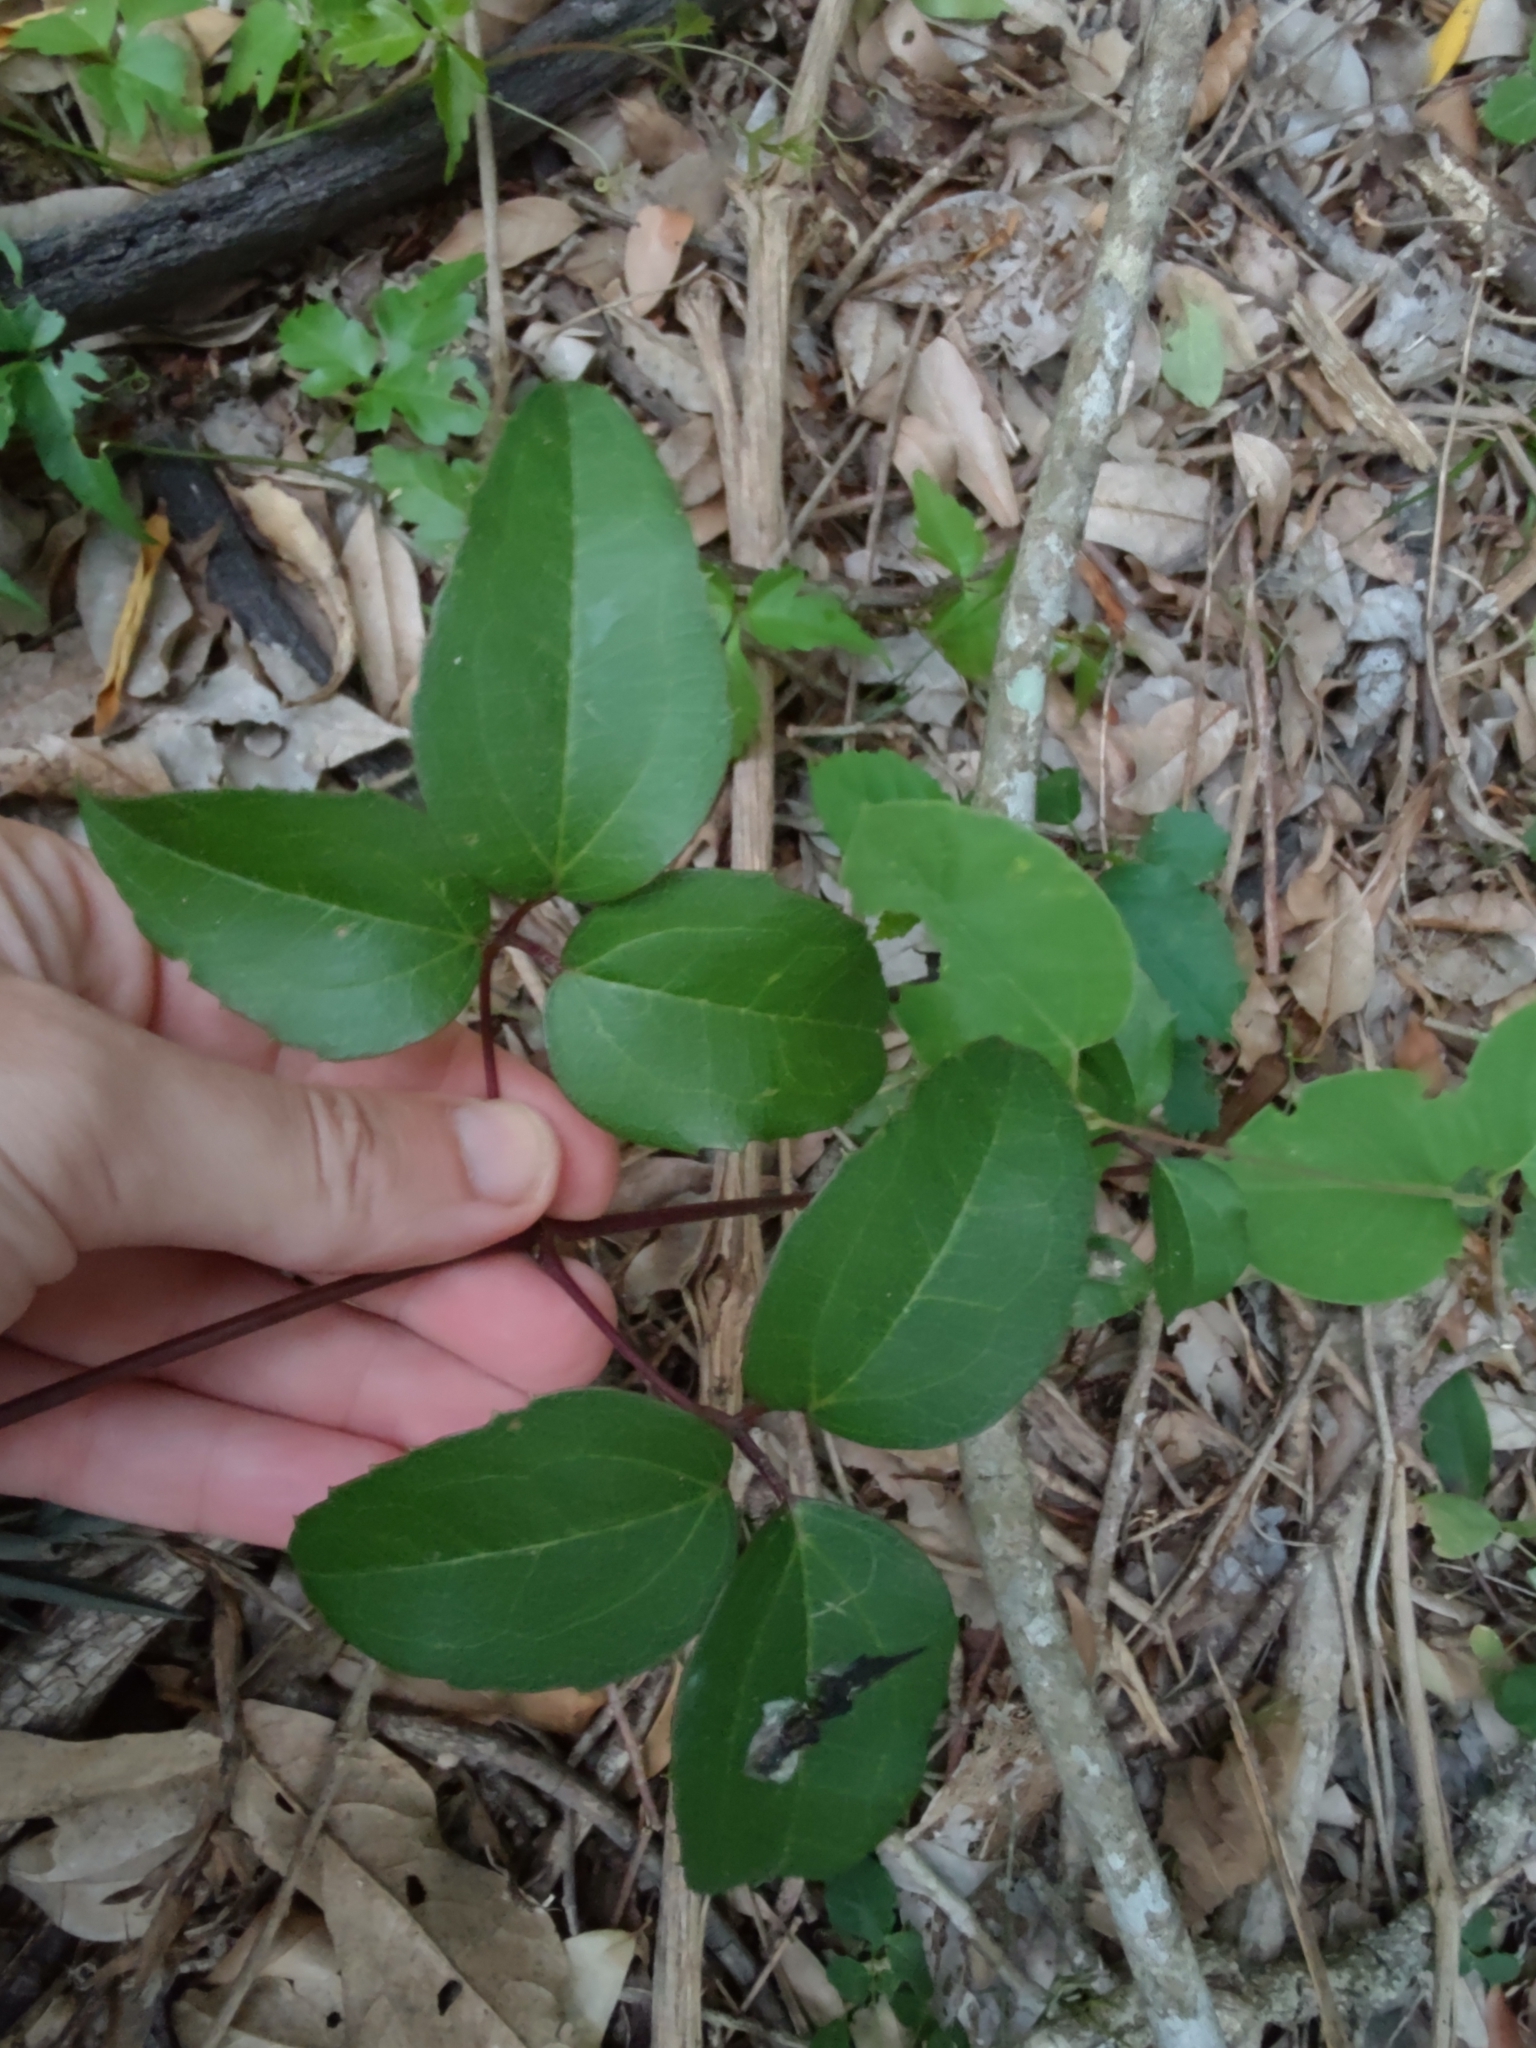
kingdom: Plantae
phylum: Tracheophyta
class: Magnoliopsida
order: Ranunculales
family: Ranunculaceae
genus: Clematis
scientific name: Clematis bonariensis
